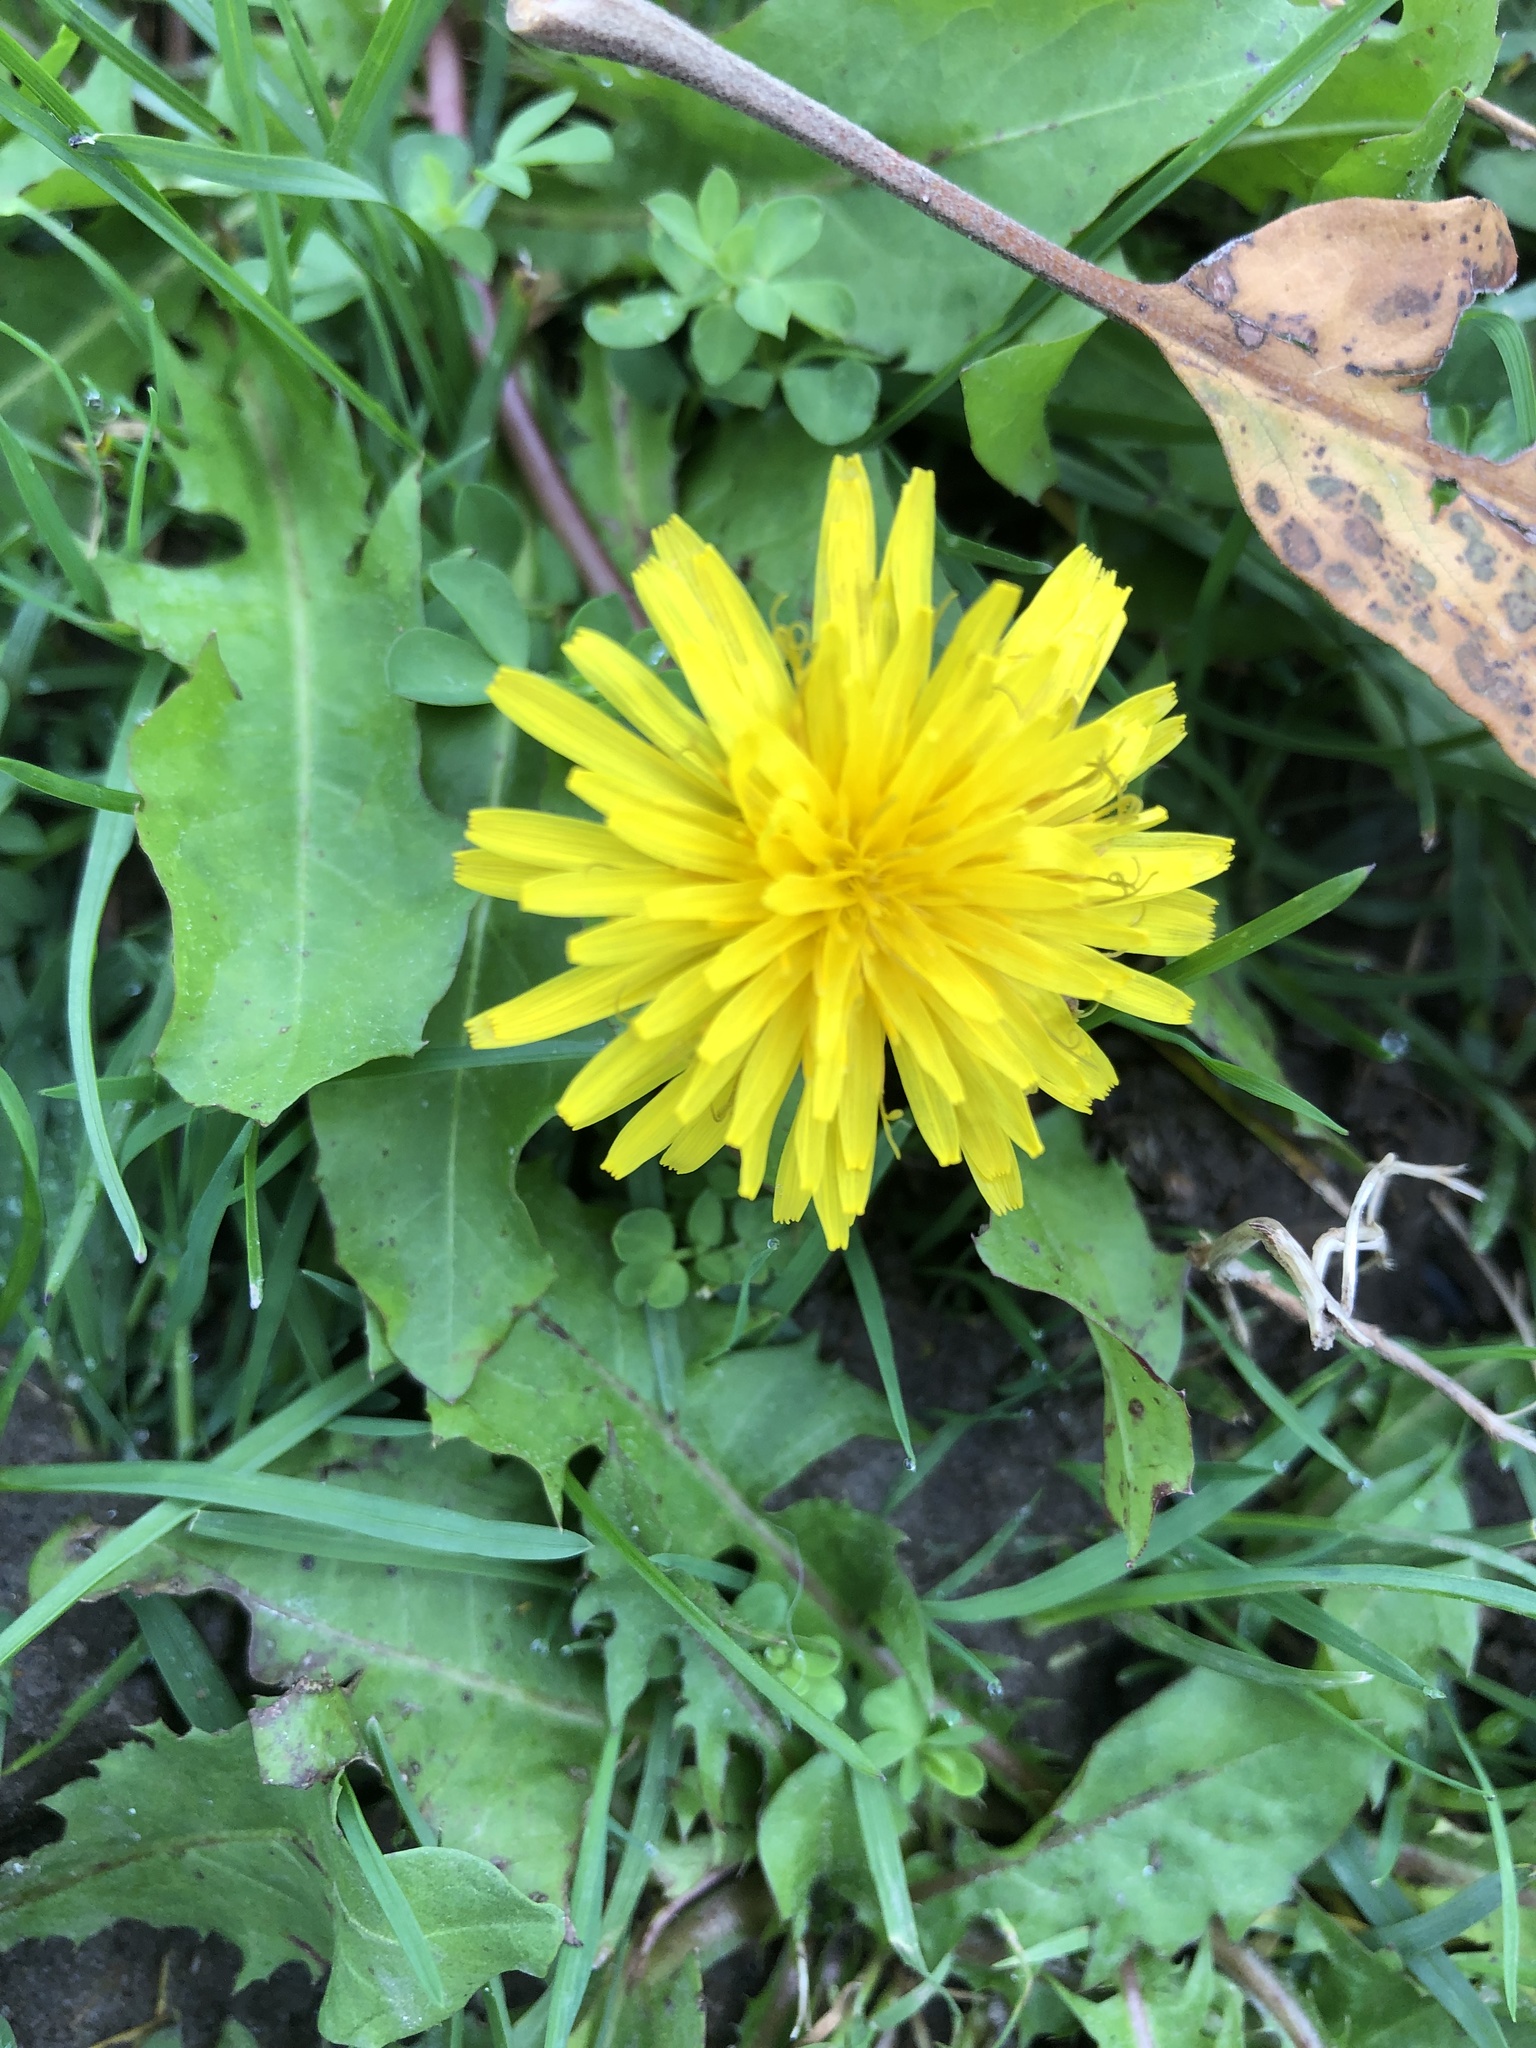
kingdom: Plantae
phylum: Tracheophyta
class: Magnoliopsida
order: Asterales
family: Asteraceae
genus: Taraxacum
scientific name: Taraxacum officinale
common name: Common dandelion
